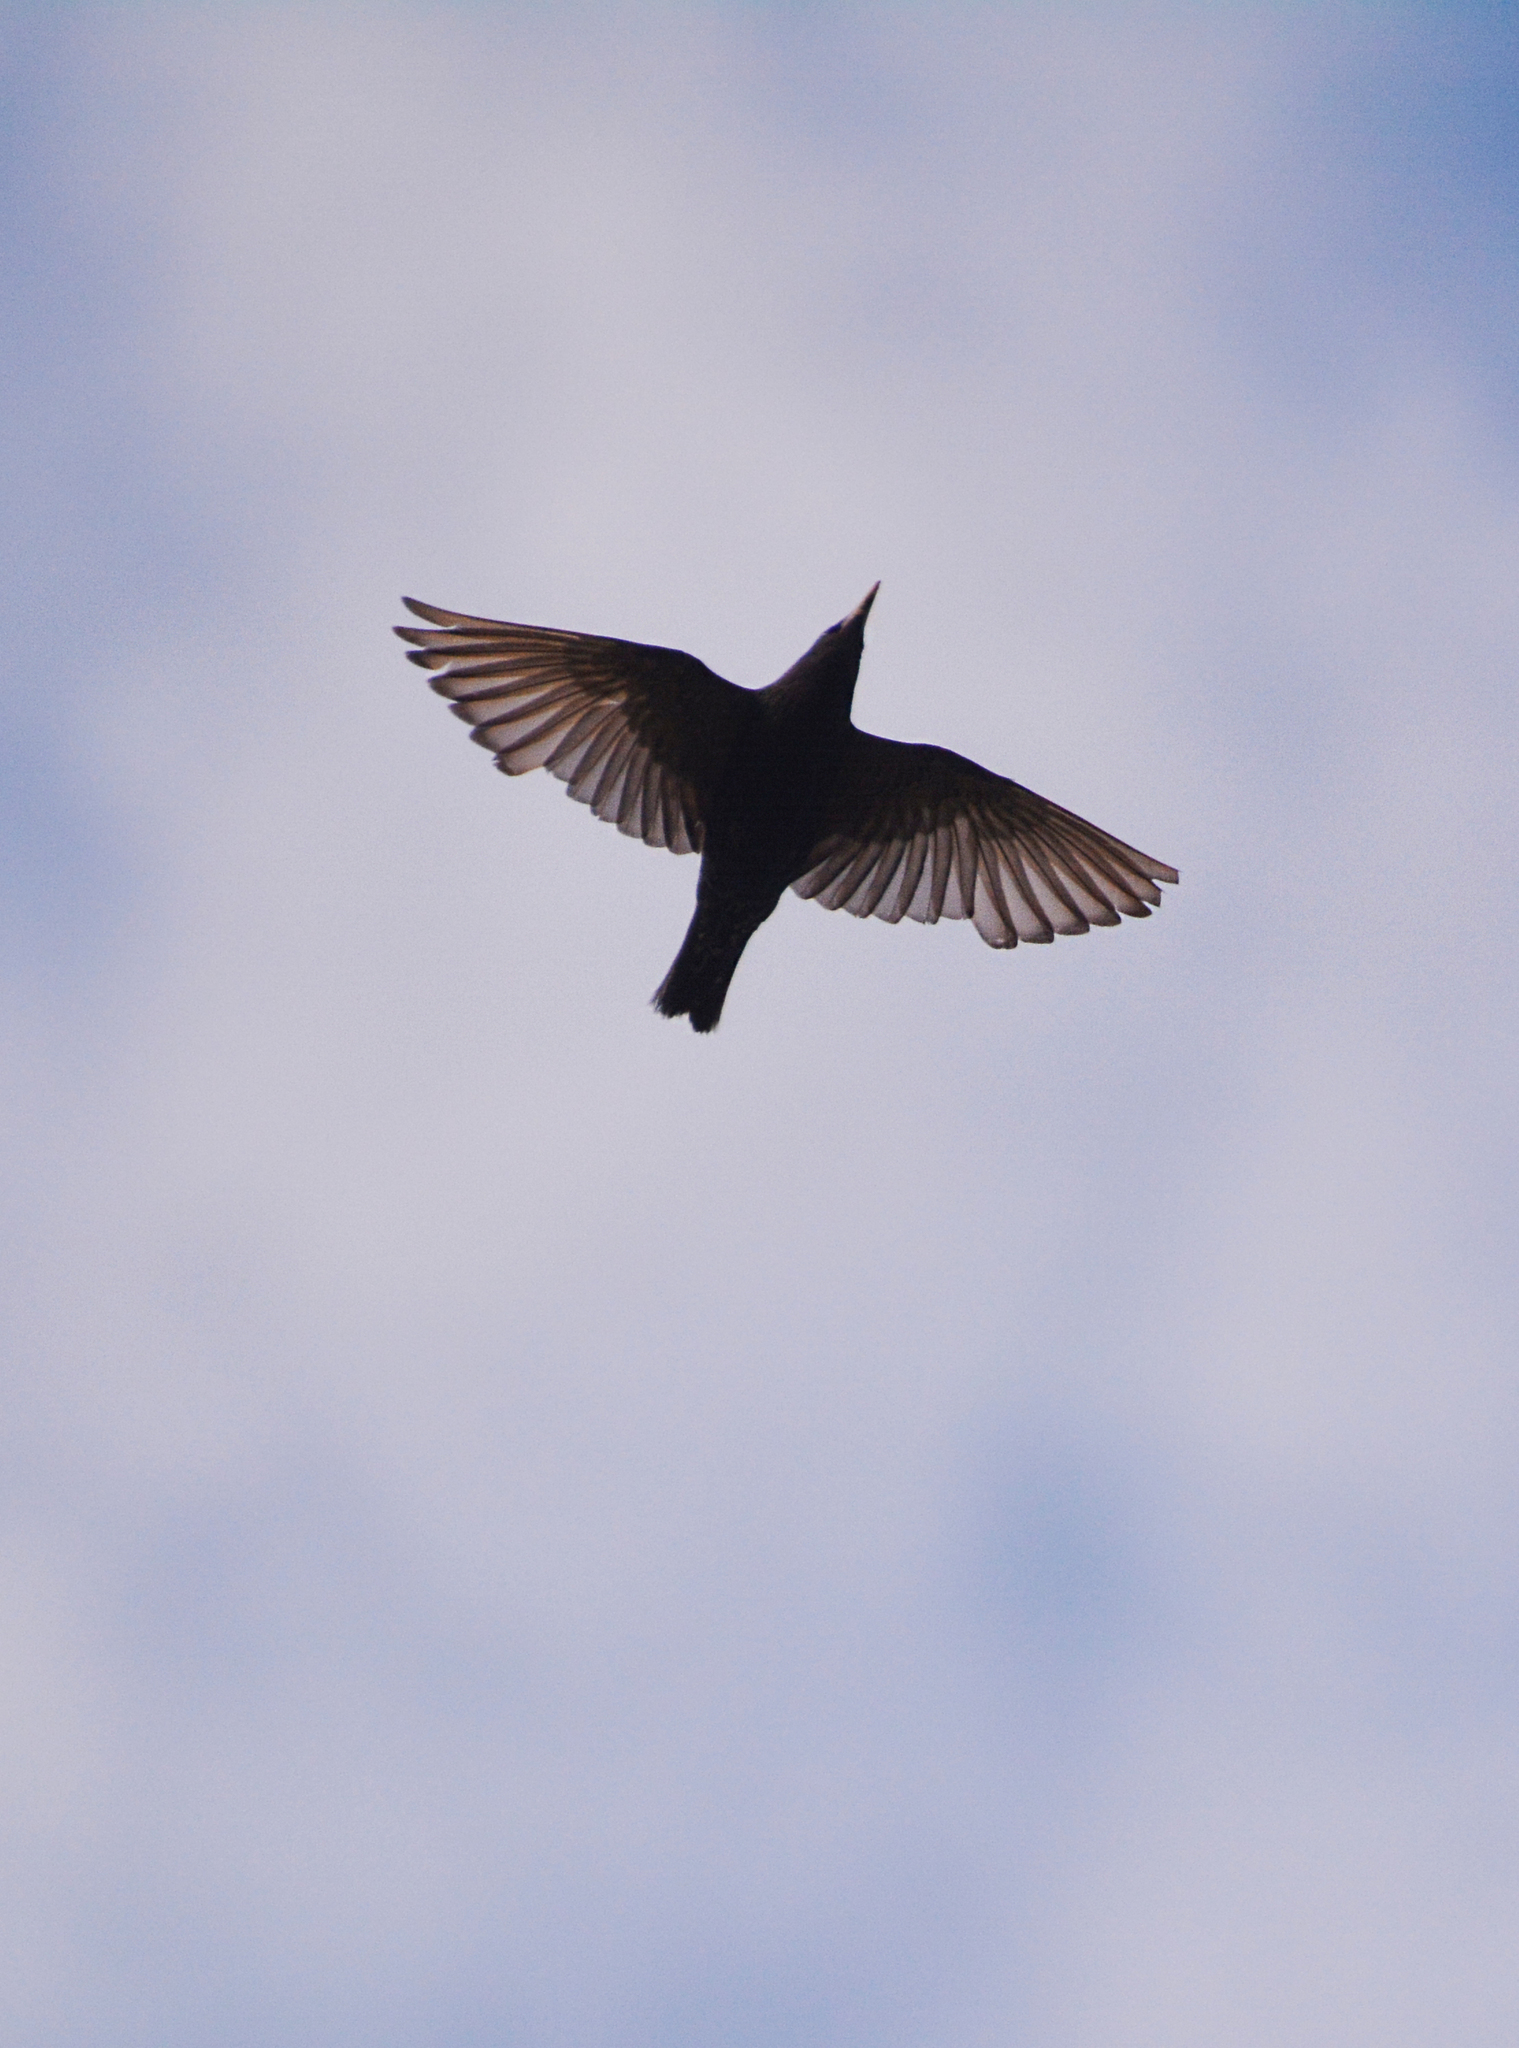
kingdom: Animalia
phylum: Chordata
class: Aves
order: Passeriformes
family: Sturnidae
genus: Sturnus
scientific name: Sturnus vulgaris
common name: Common starling
